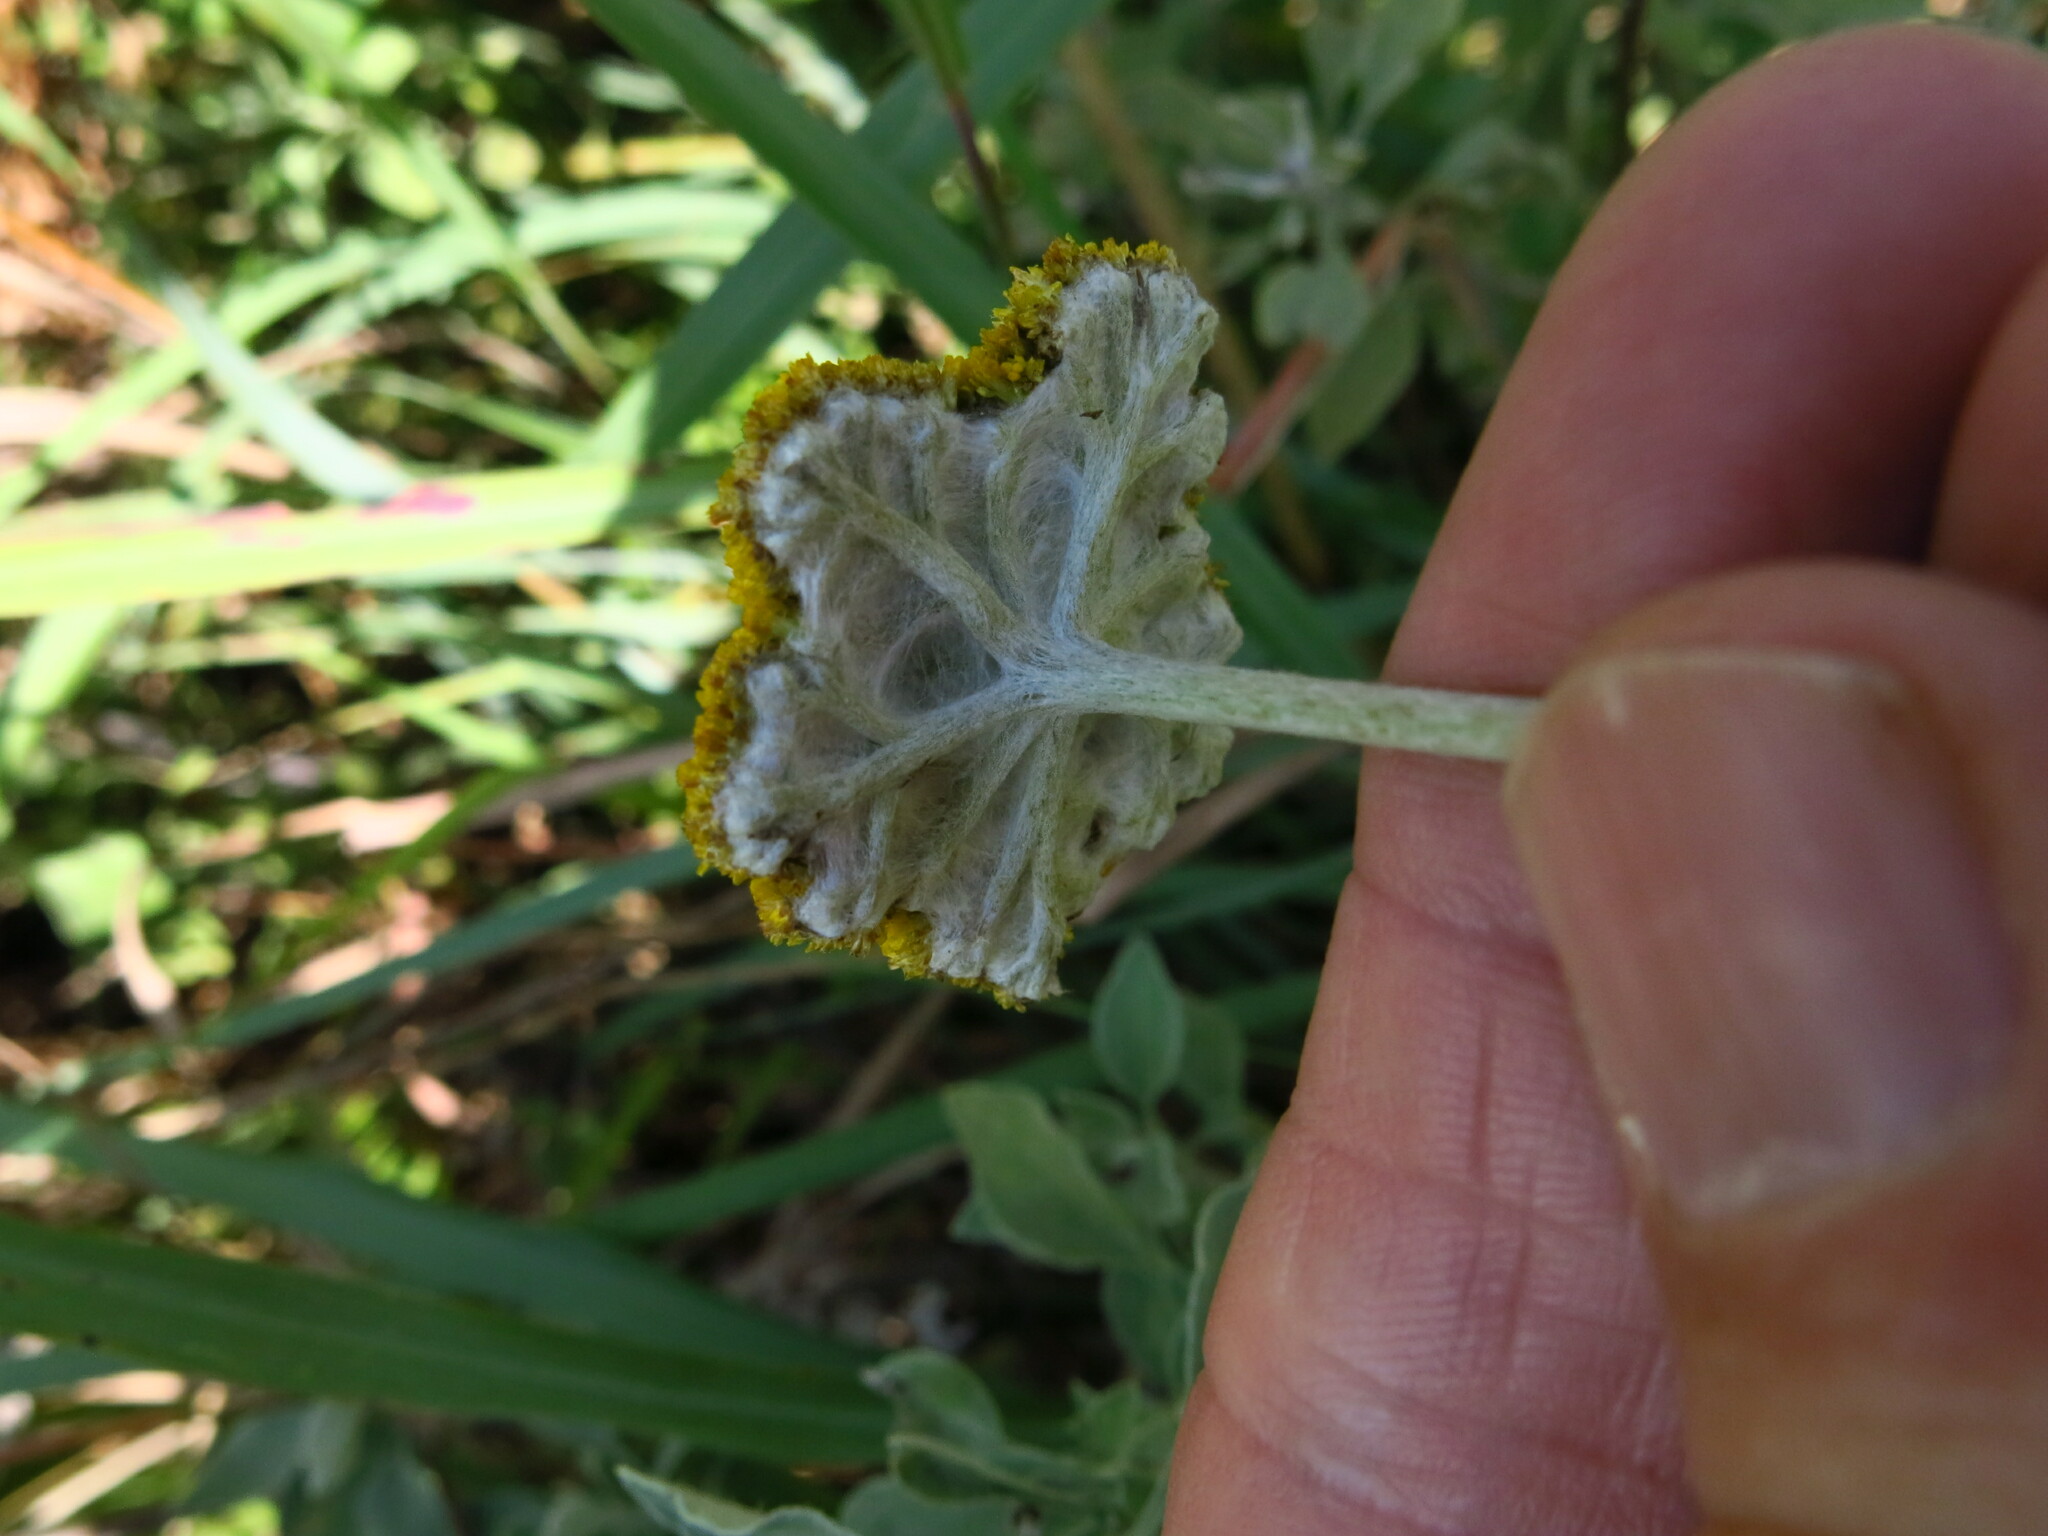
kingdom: Plantae
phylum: Tracheophyta
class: Magnoliopsida
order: Asterales
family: Asteraceae
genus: Helichrysum
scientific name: Helichrysum umbraculigerum
